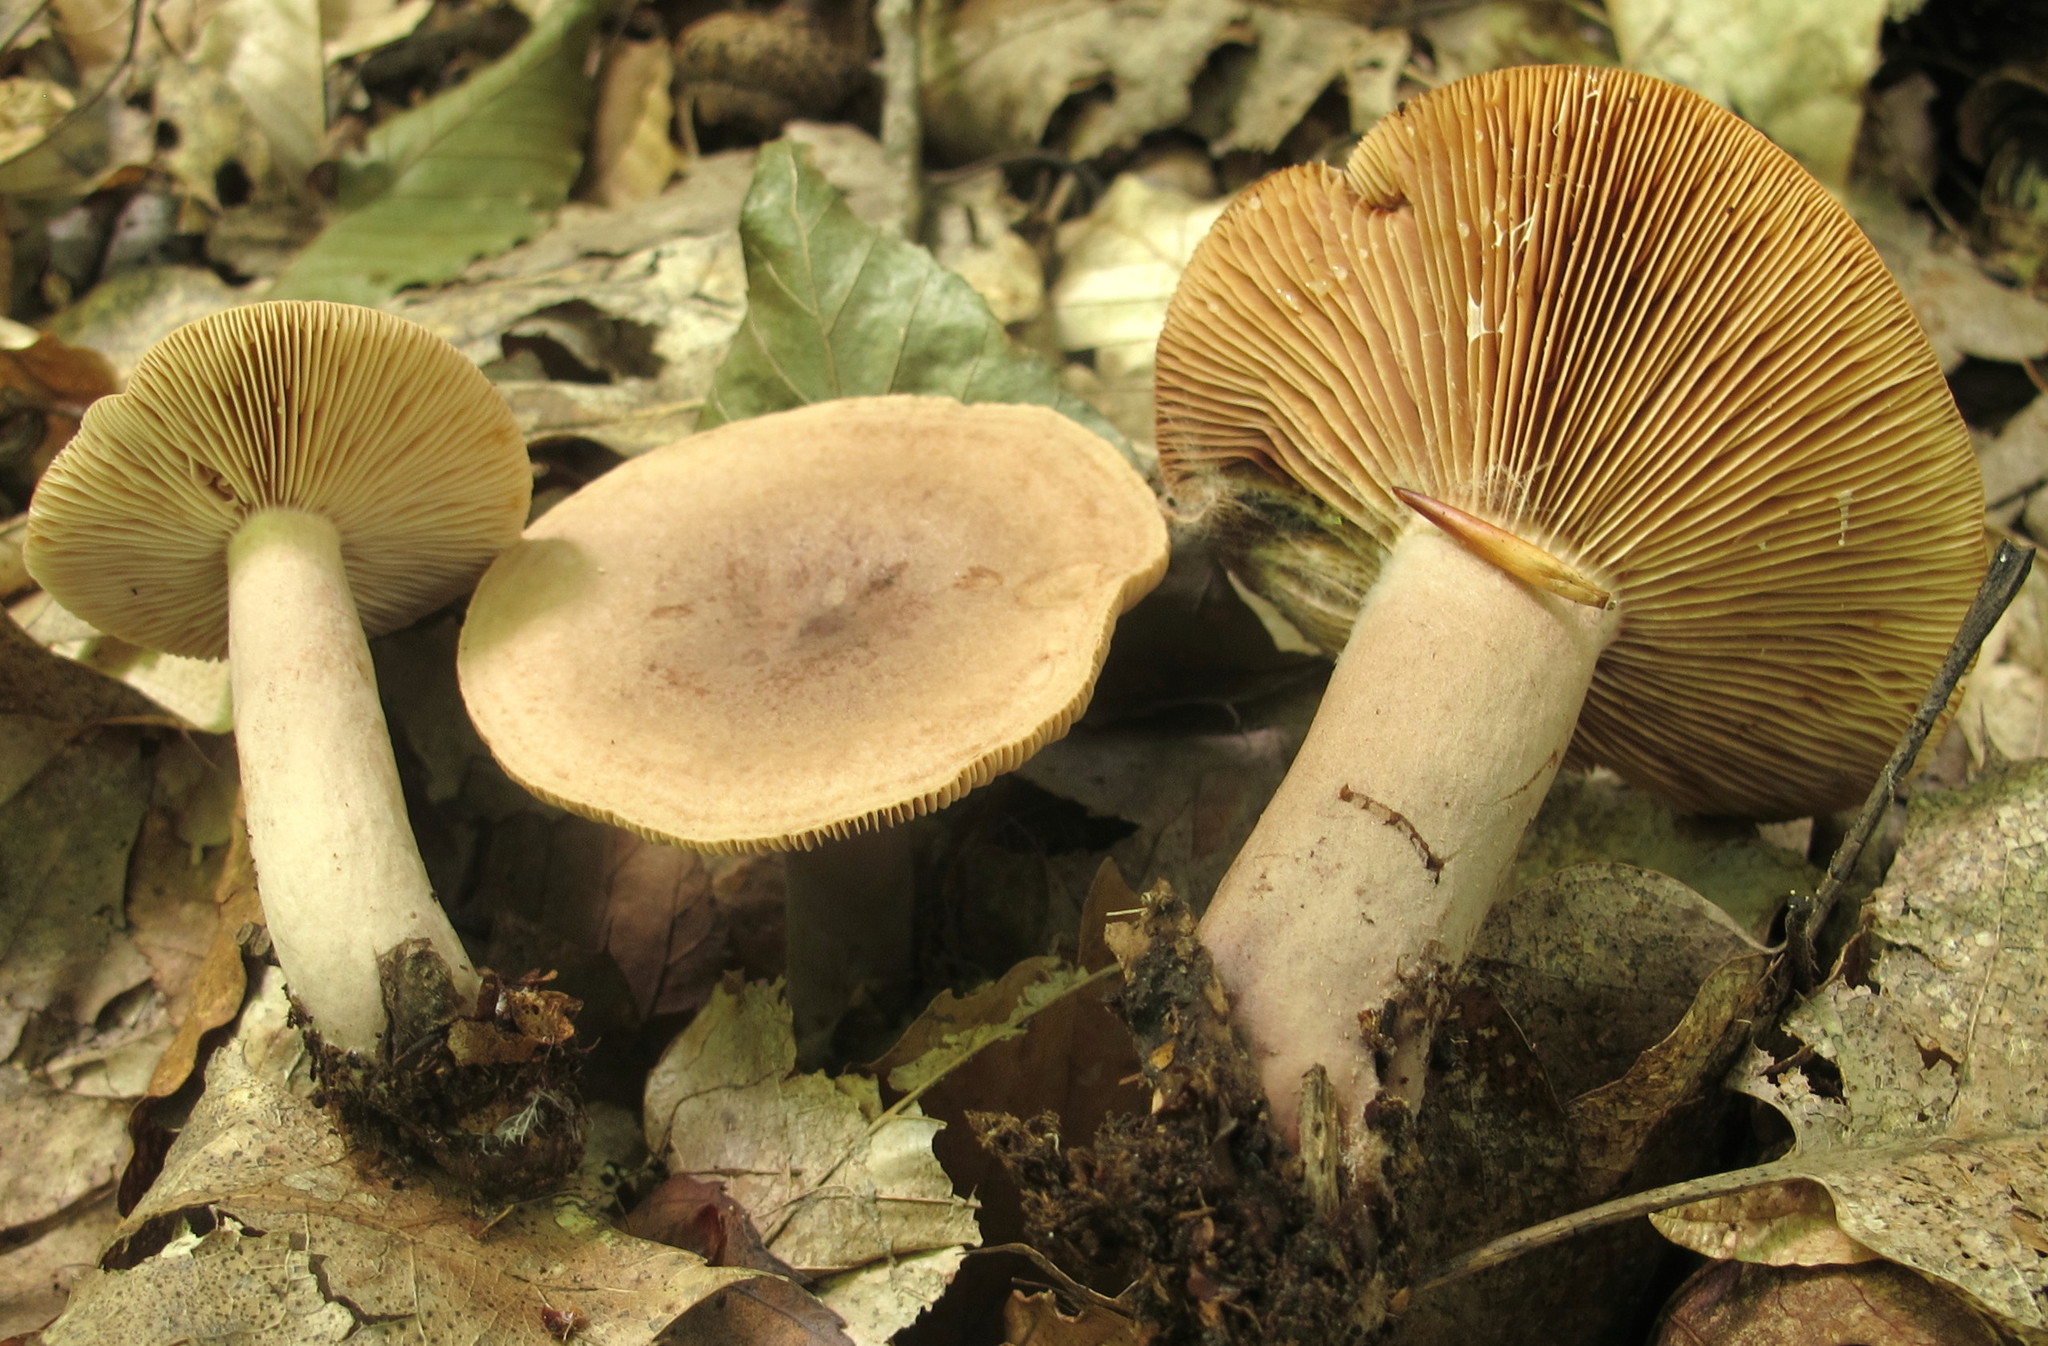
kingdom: Fungi
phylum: Basidiomycota
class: Agaricomycetes
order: Russulales
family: Russulaceae
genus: Lactarius
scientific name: Lactarius quietus
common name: Oak milk-cap
